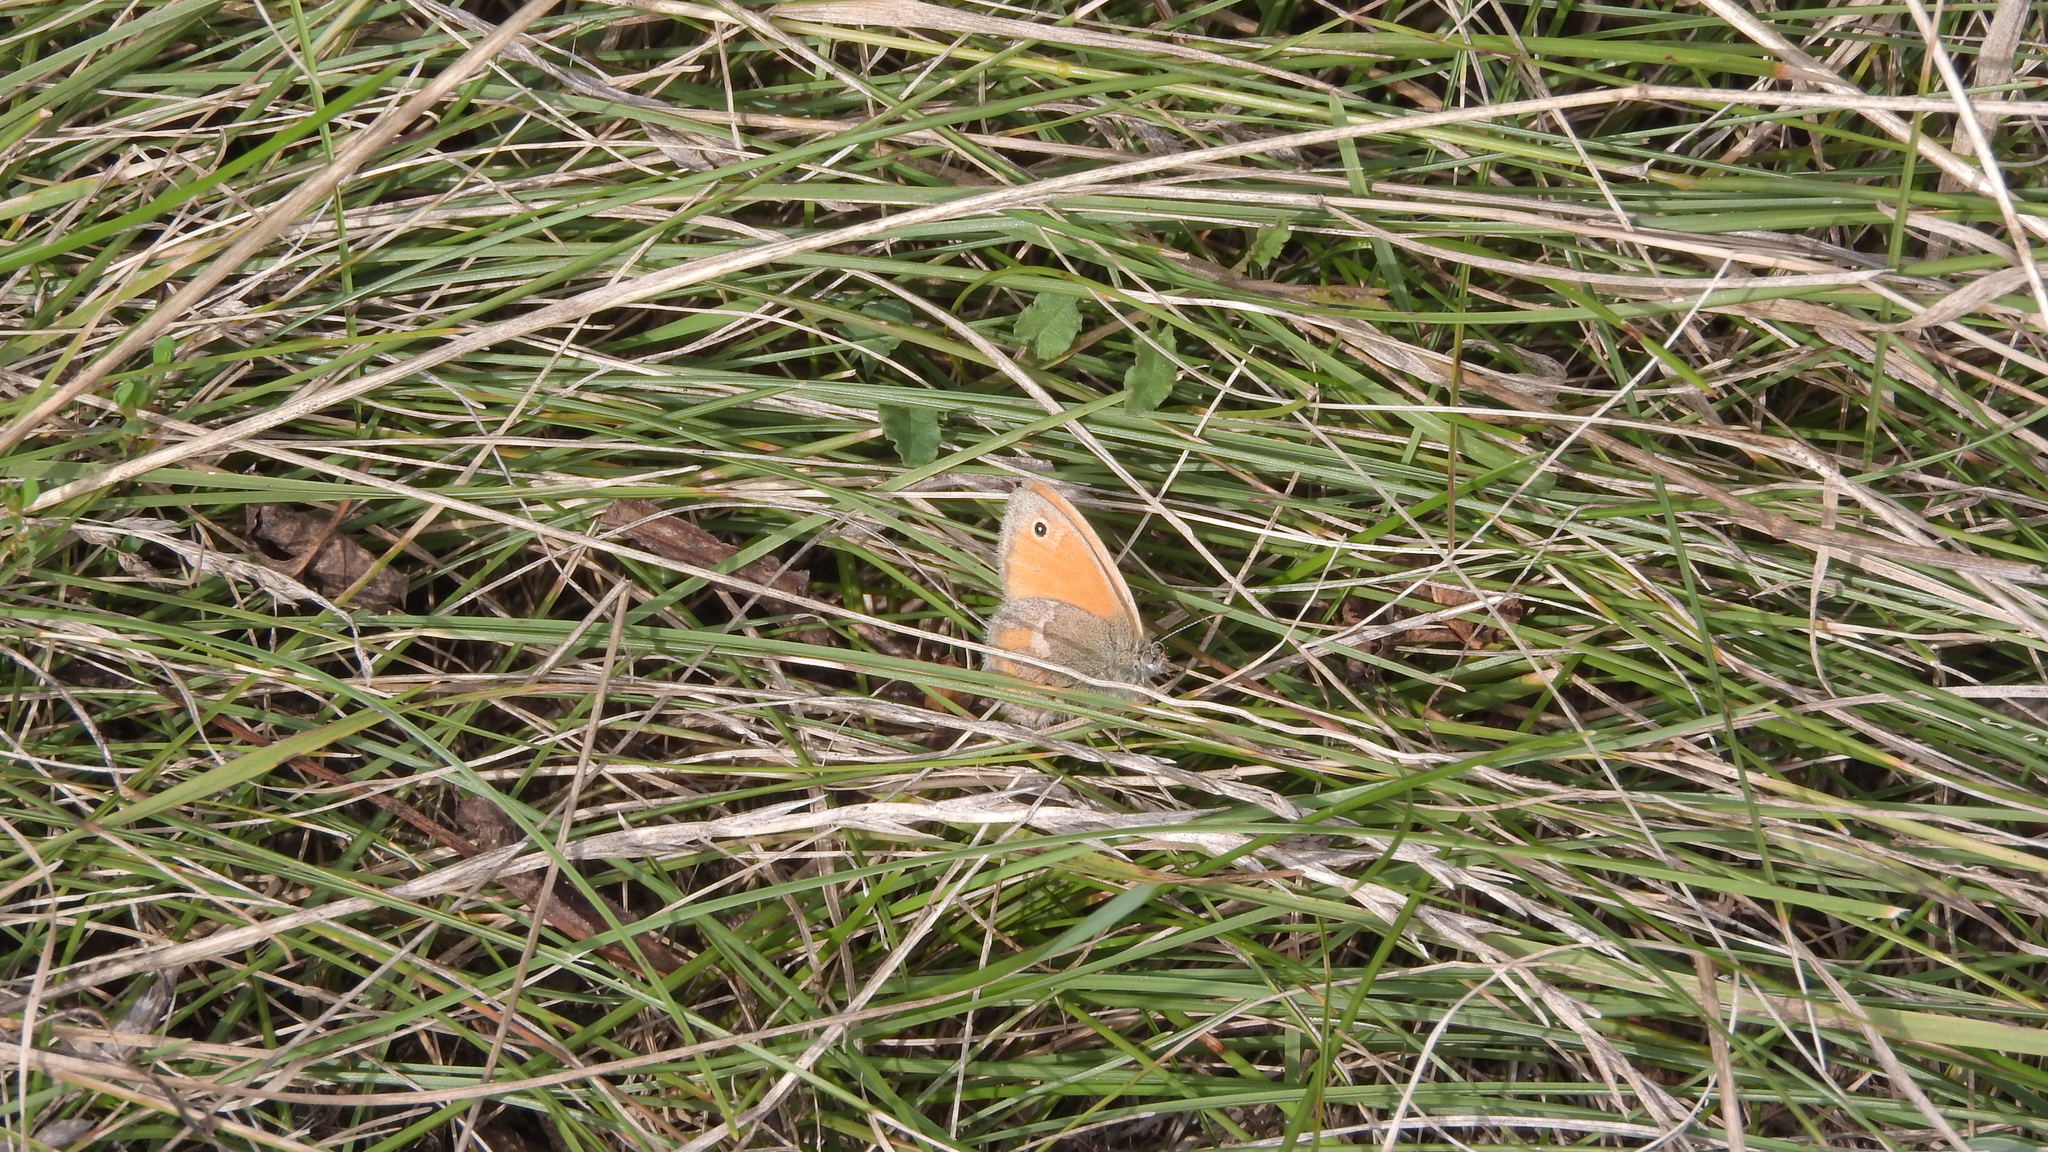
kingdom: Animalia
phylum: Arthropoda
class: Insecta
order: Lepidoptera
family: Nymphalidae
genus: Coenonympha
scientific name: Coenonympha pamphilus
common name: Small heath
